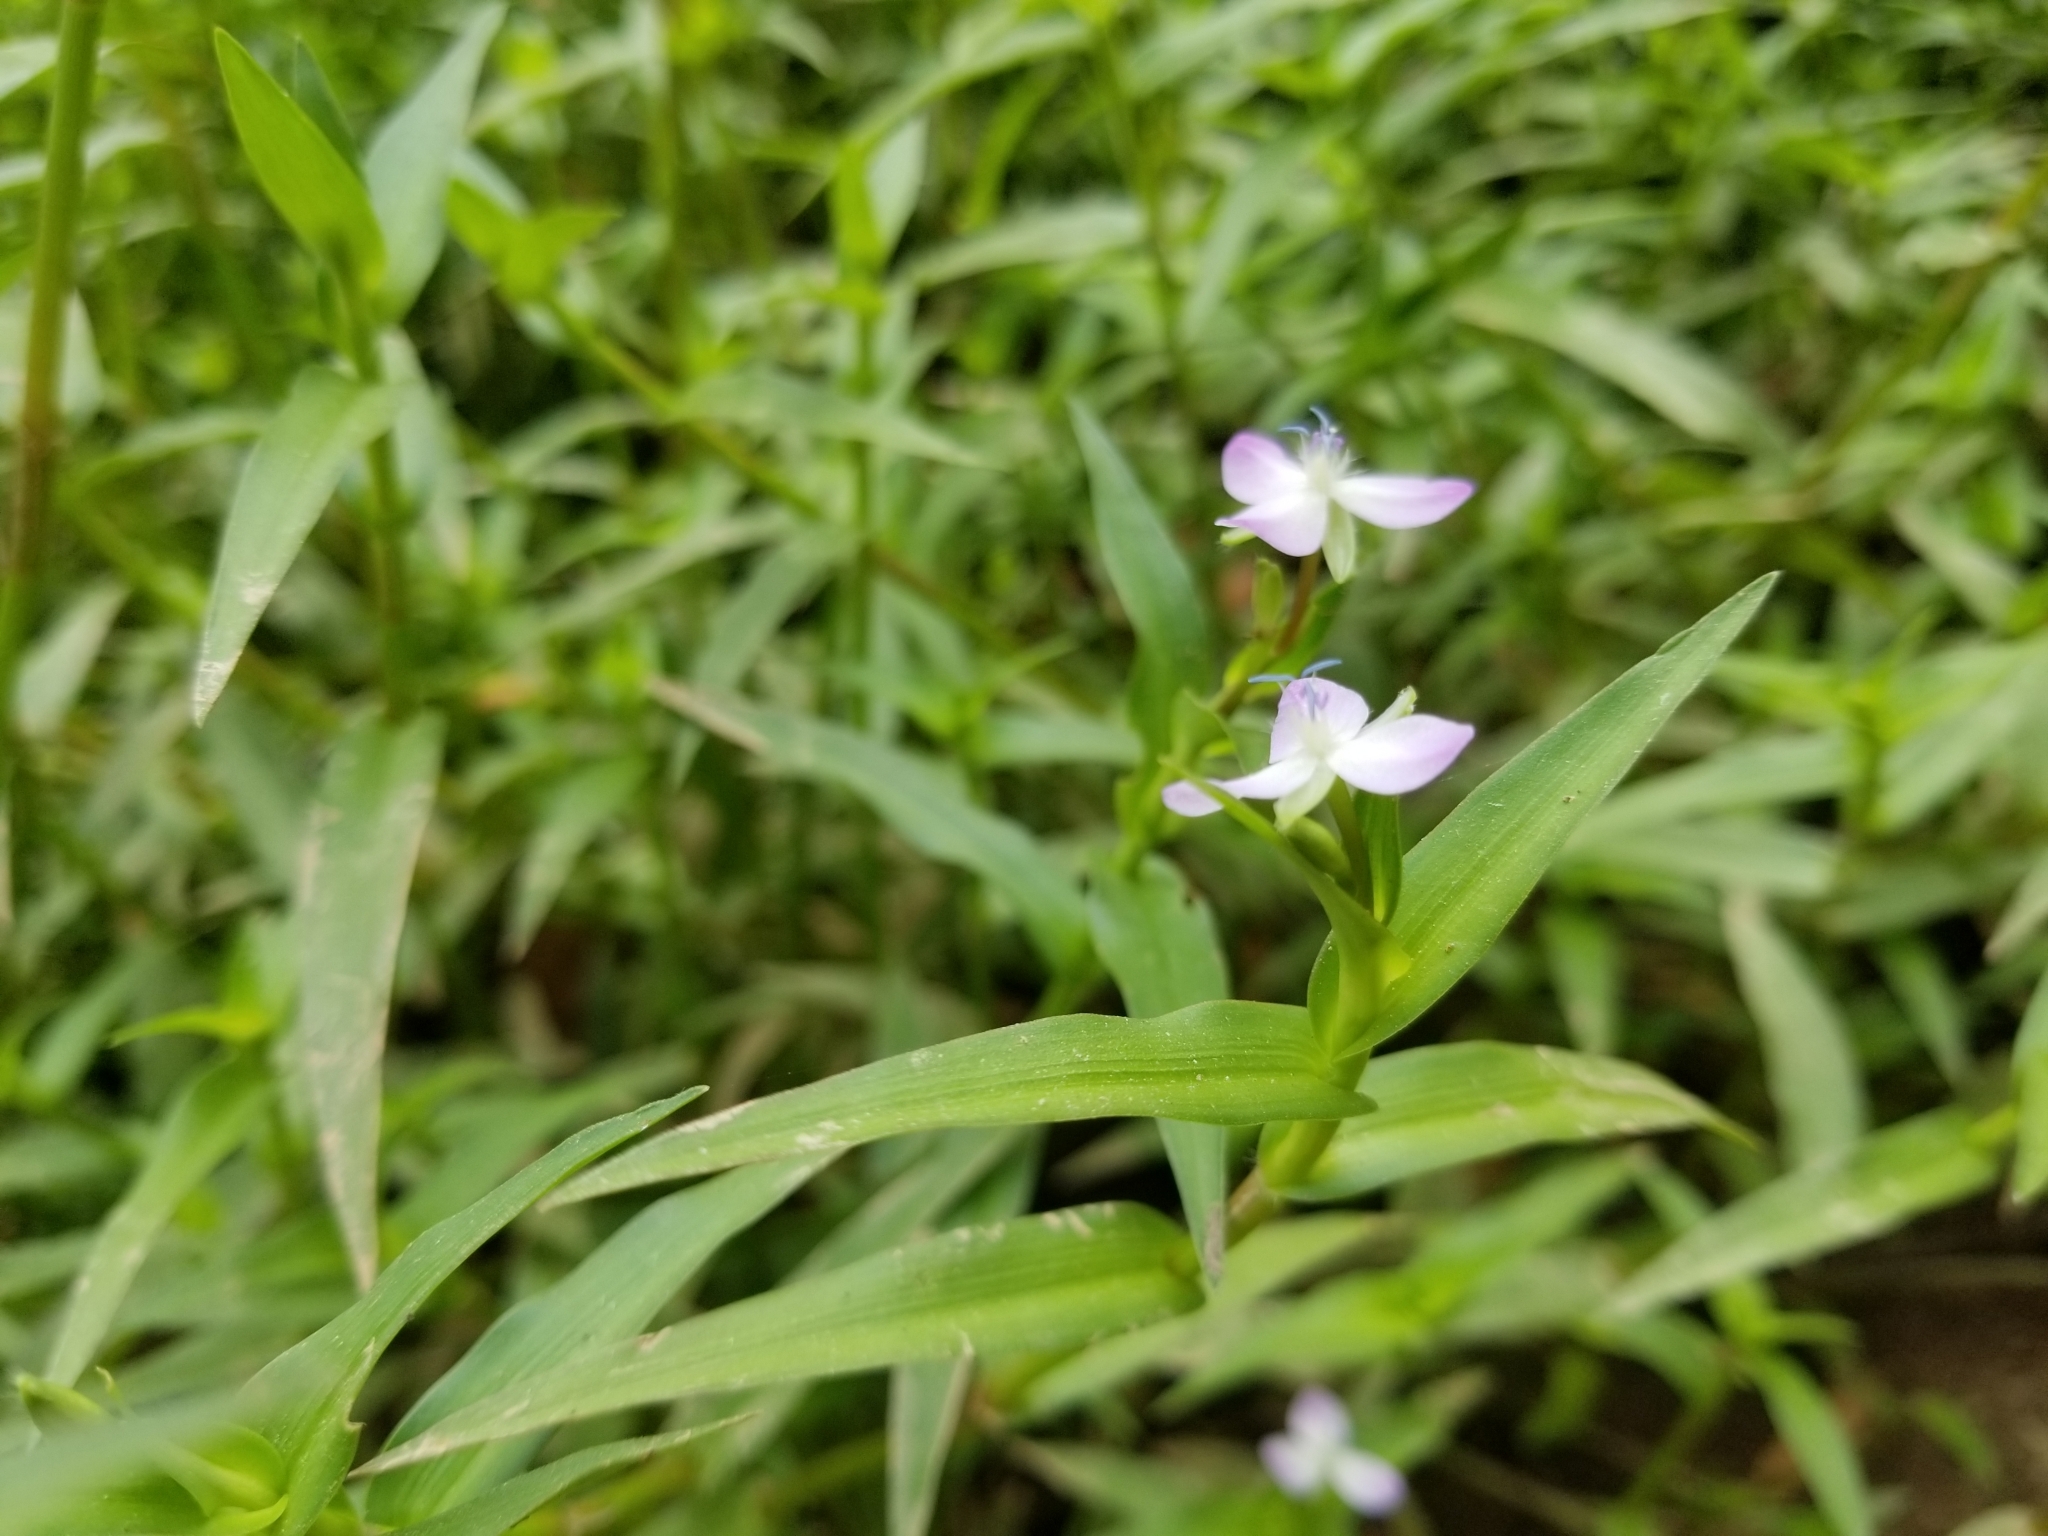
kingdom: Plantae
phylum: Tracheophyta
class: Liliopsida
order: Commelinales
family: Commelinaceae
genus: Murdannia
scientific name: Murdannia keisak
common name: Wartremoving herb
